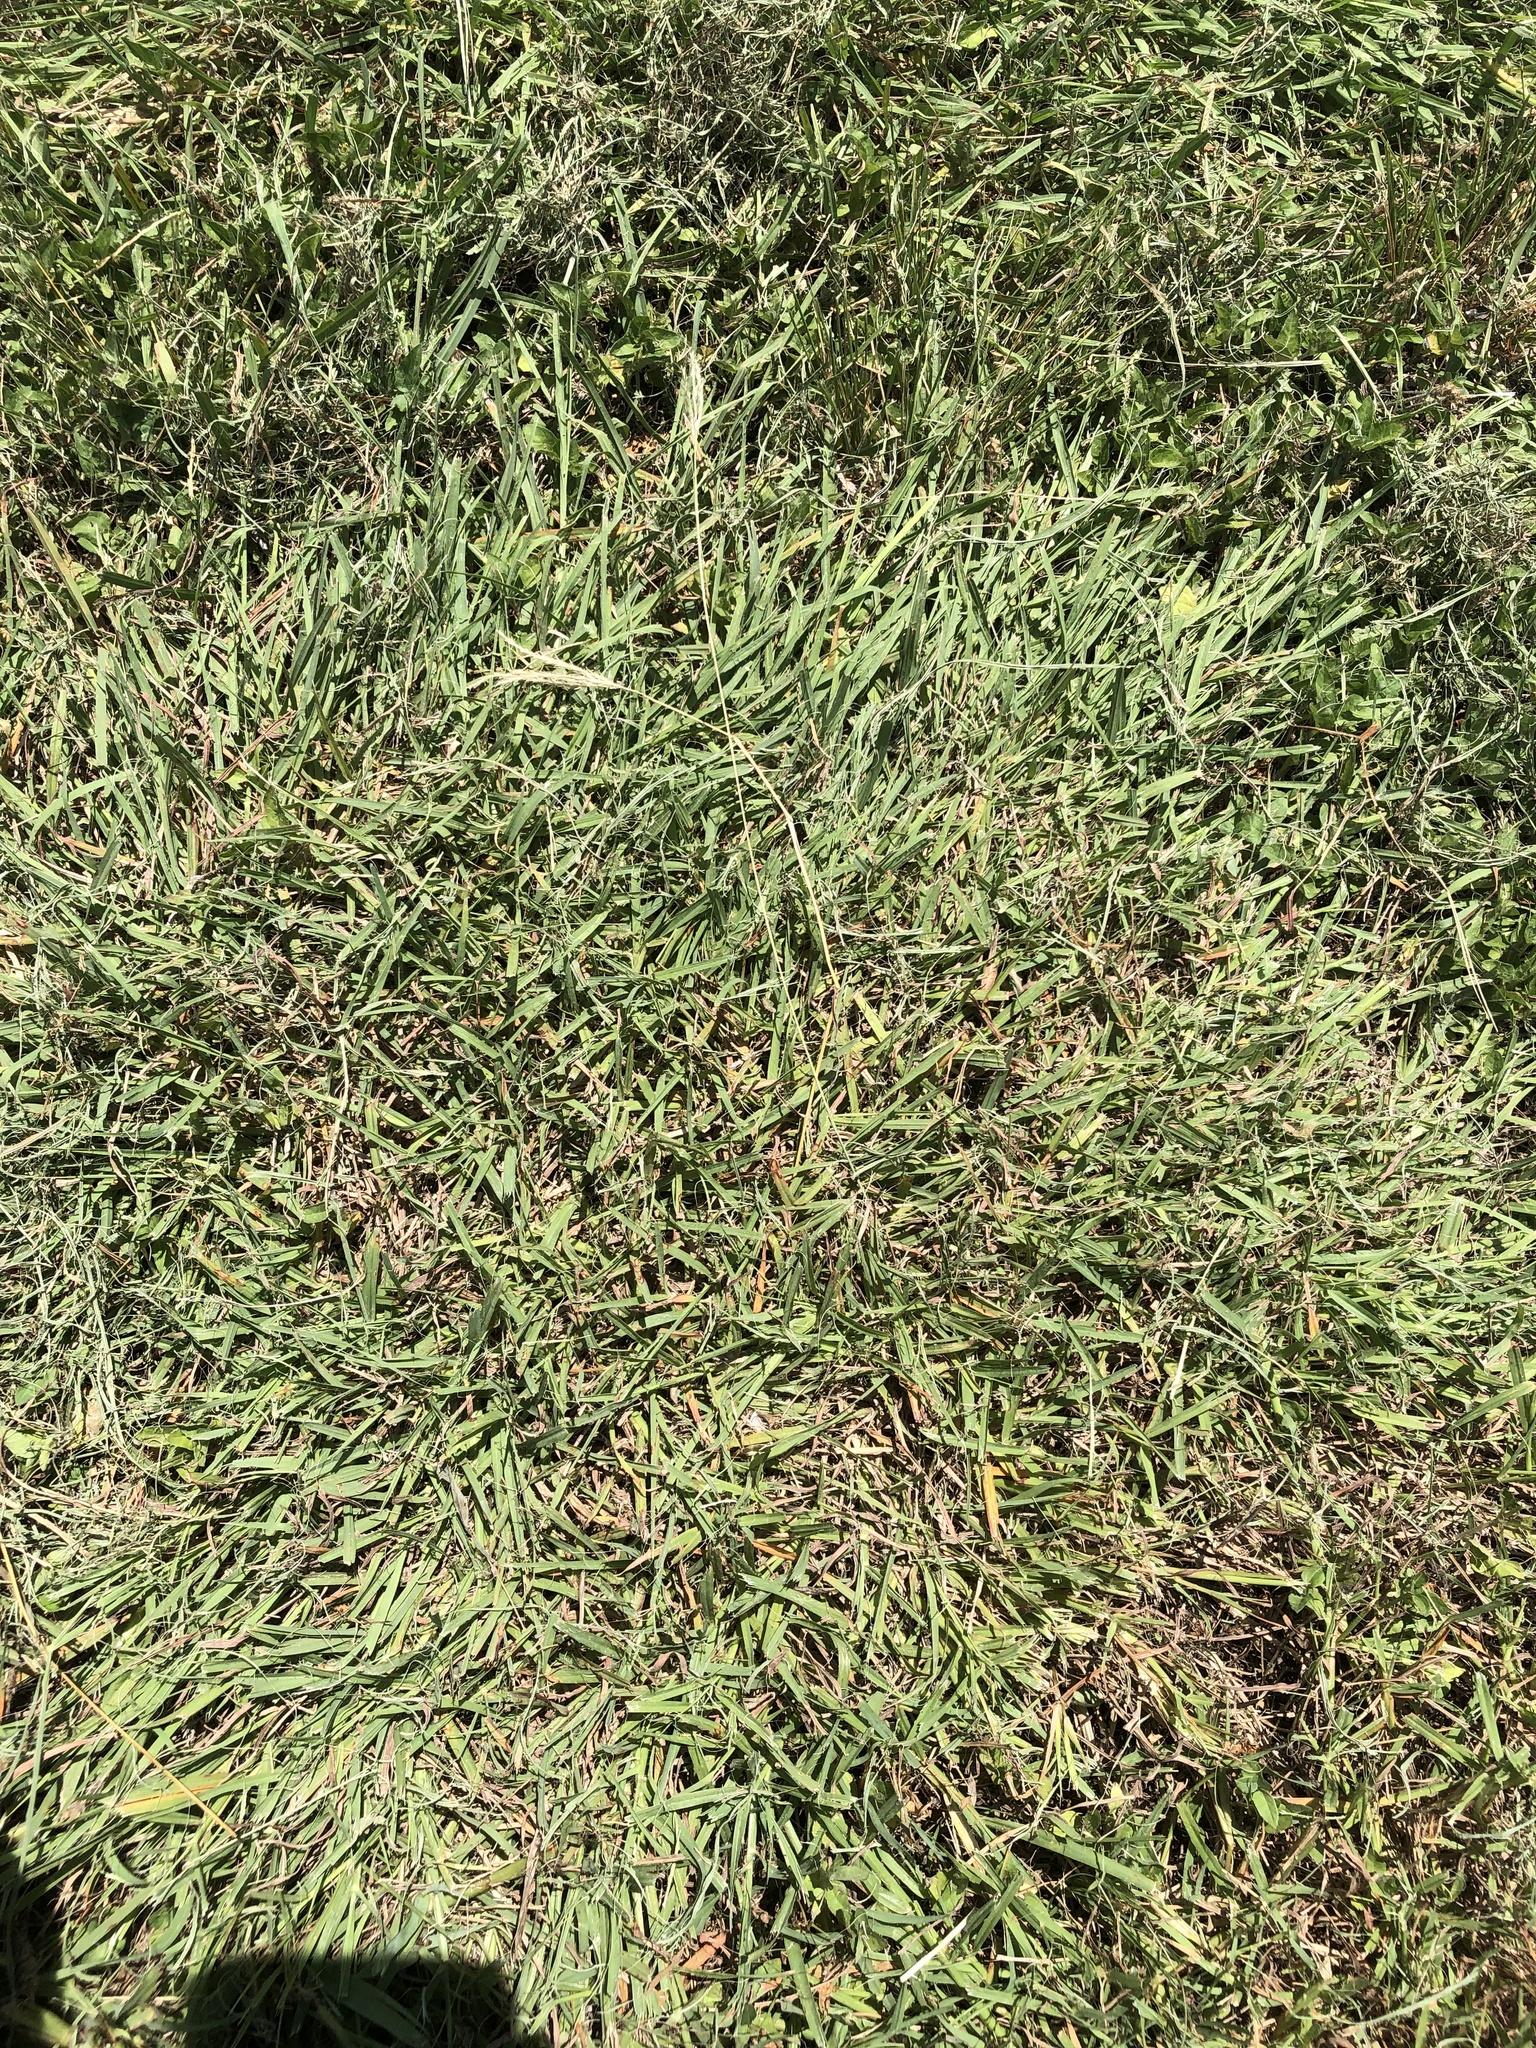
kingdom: Plantae
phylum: Tracheophyta
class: Liliopsida
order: Poales
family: Poaceae
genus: Bothriochloa
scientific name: Bothriochloa ischaemum
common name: Yellow bluestem
